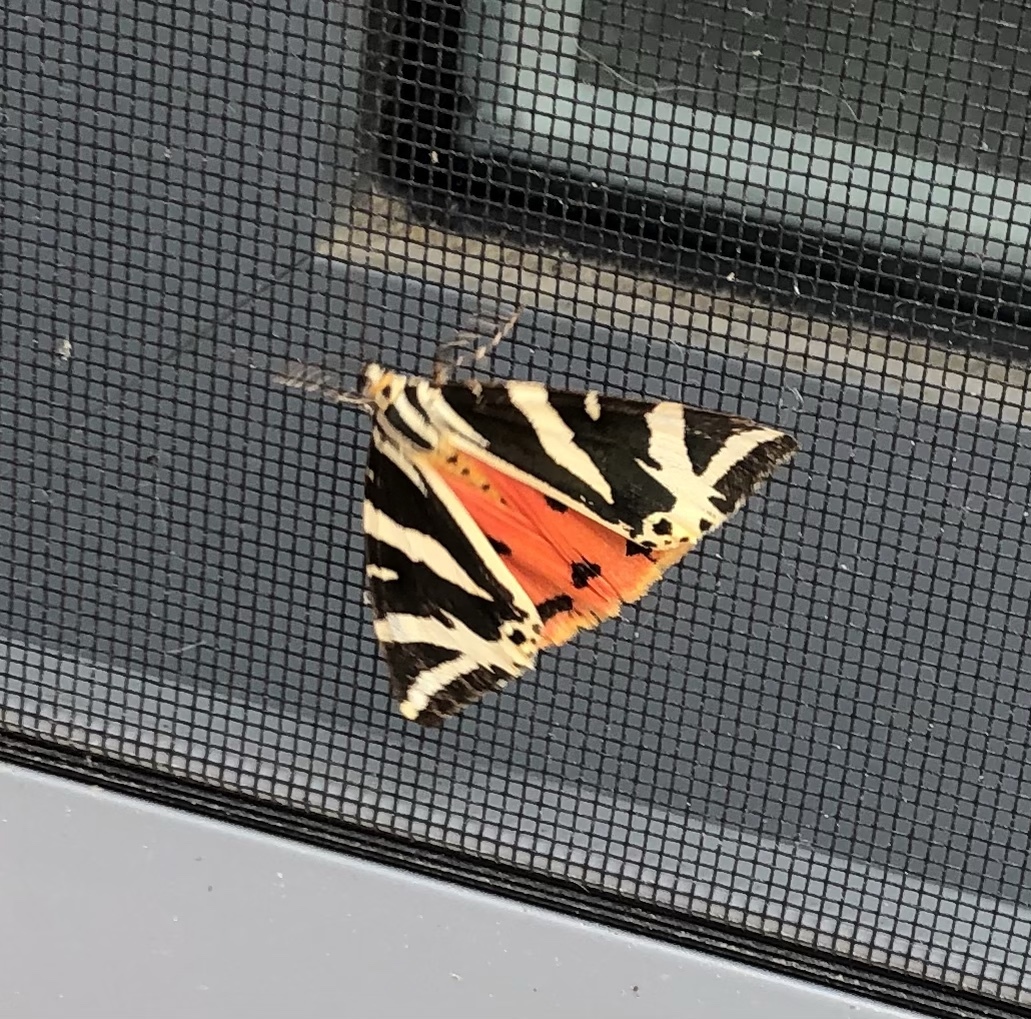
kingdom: Animalia
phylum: Arthropoda
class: Insecta
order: Lepidoptera
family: Erebidae
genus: Euplagia
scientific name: Euplagia quadripunctaria
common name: Jersey tiger
